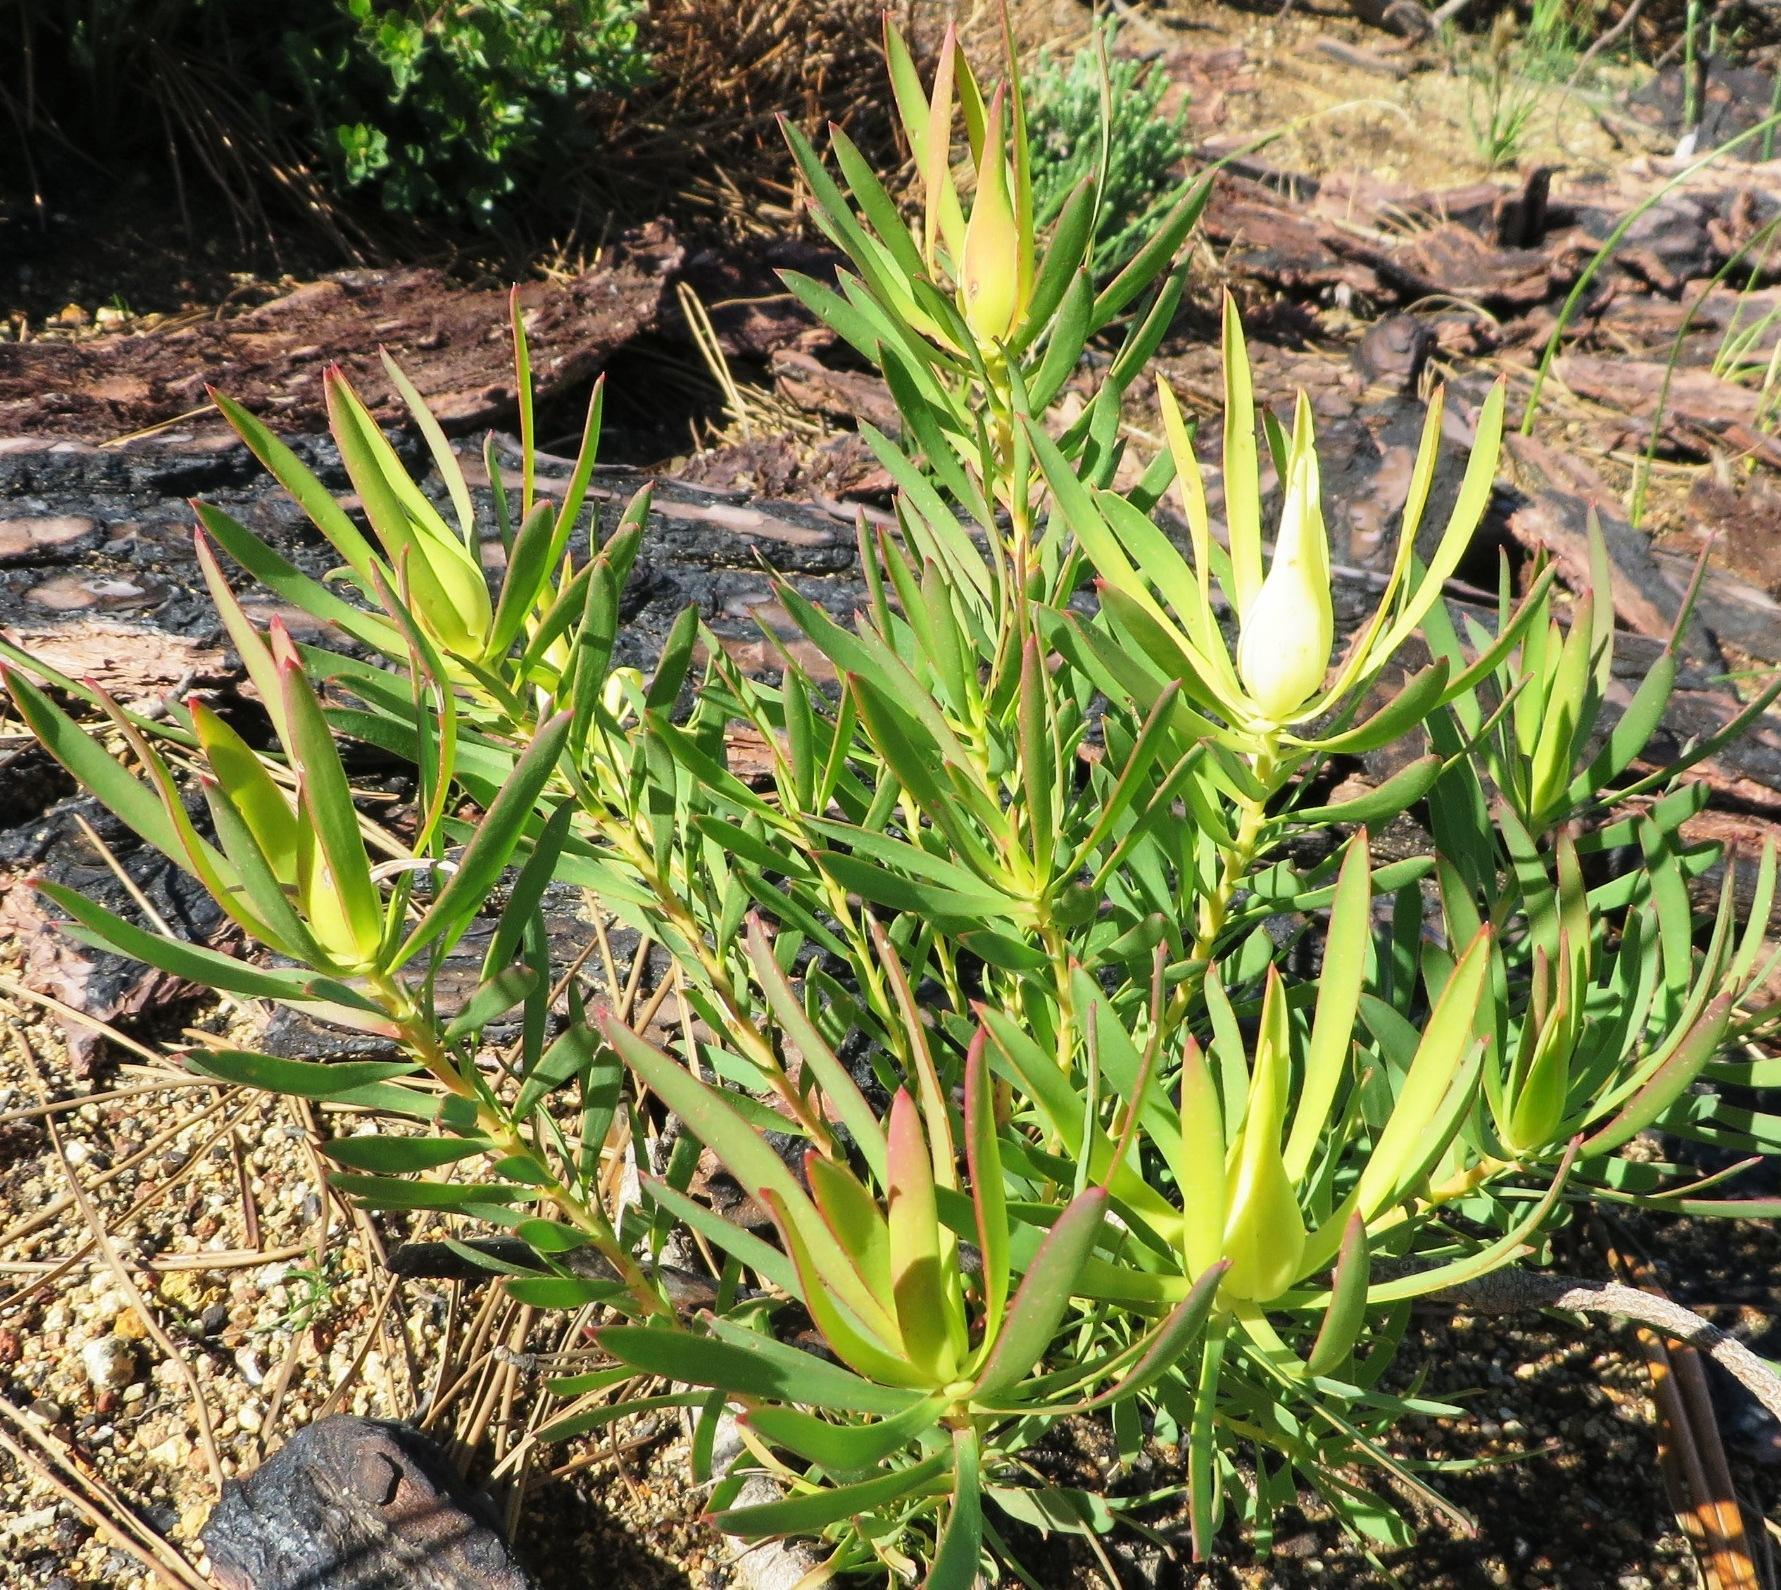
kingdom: Plantae
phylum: Tracheophyta
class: Magnoliopsida
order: Proteales
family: Proteaceae
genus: Leucadendron
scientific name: Leucadendron salignum
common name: Common sunshine conebush
